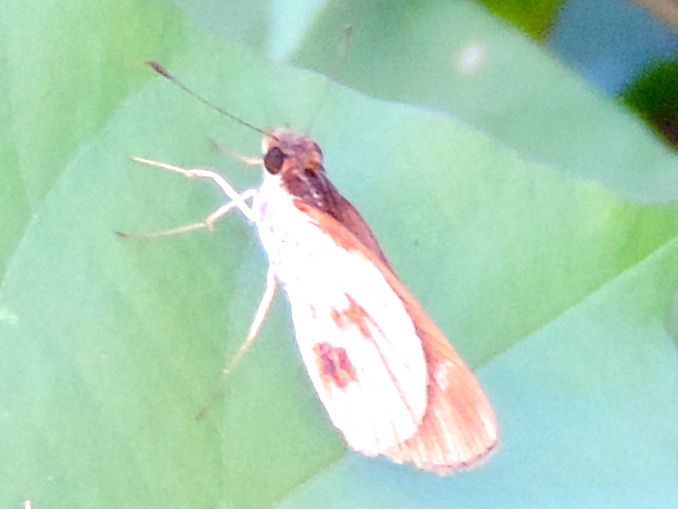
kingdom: Animalia
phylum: Arthropoda
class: Insecta
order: Lepidoptera
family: Hesperiidae
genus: Troyus
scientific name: Troyus fantasos
